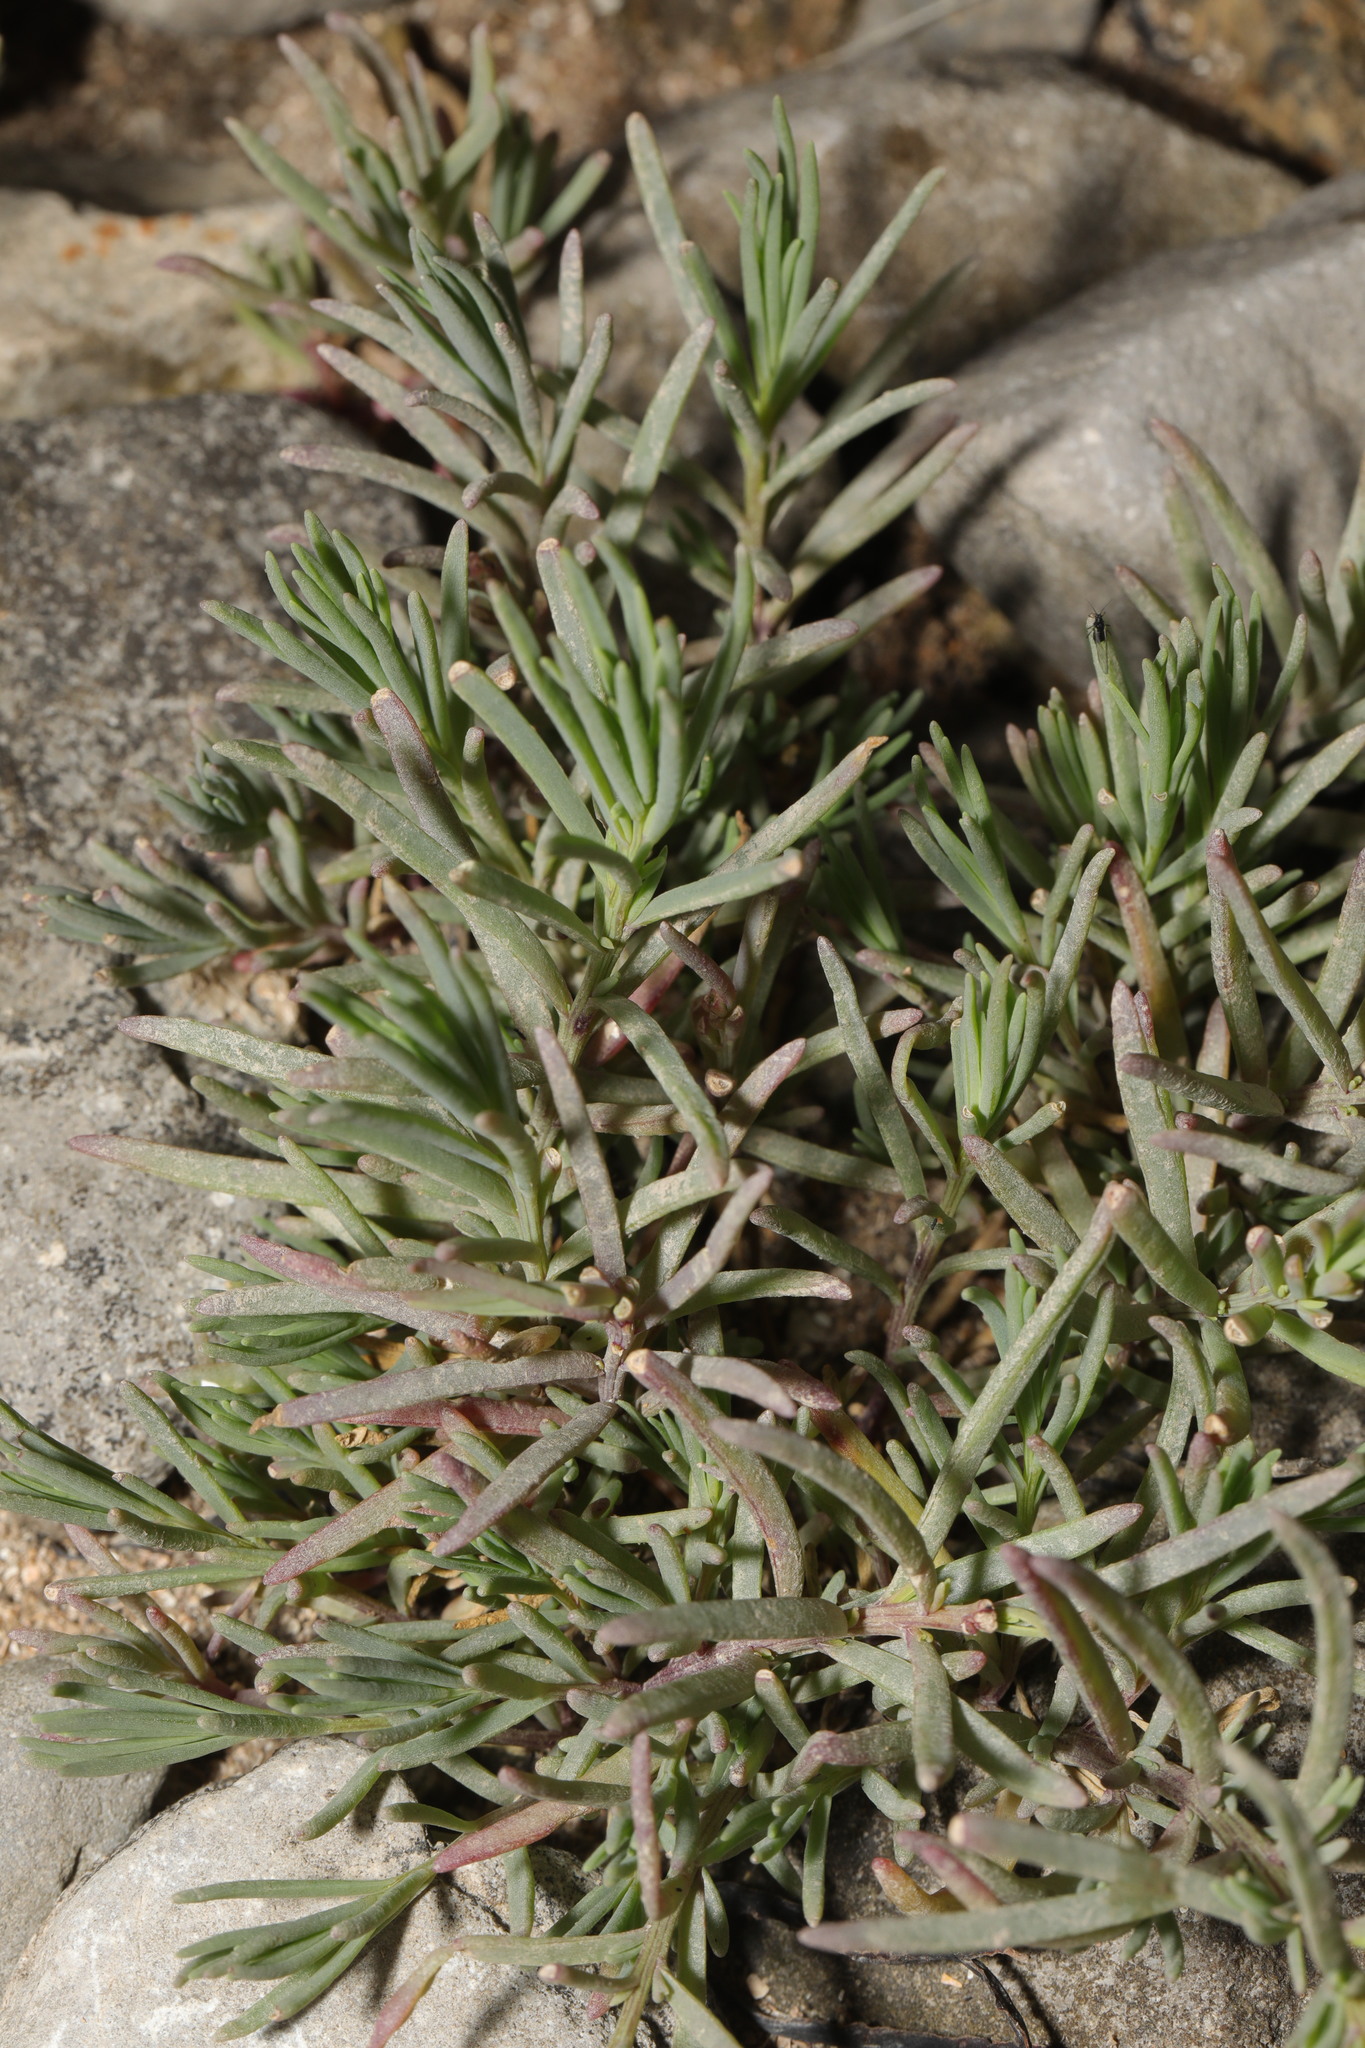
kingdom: Plantae
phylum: Tracheophyta
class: Magnoliopsida
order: Caryophyllales
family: Amaranthaceae
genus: Suaeda
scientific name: Suaeda maritima
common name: Annual sea-blite
